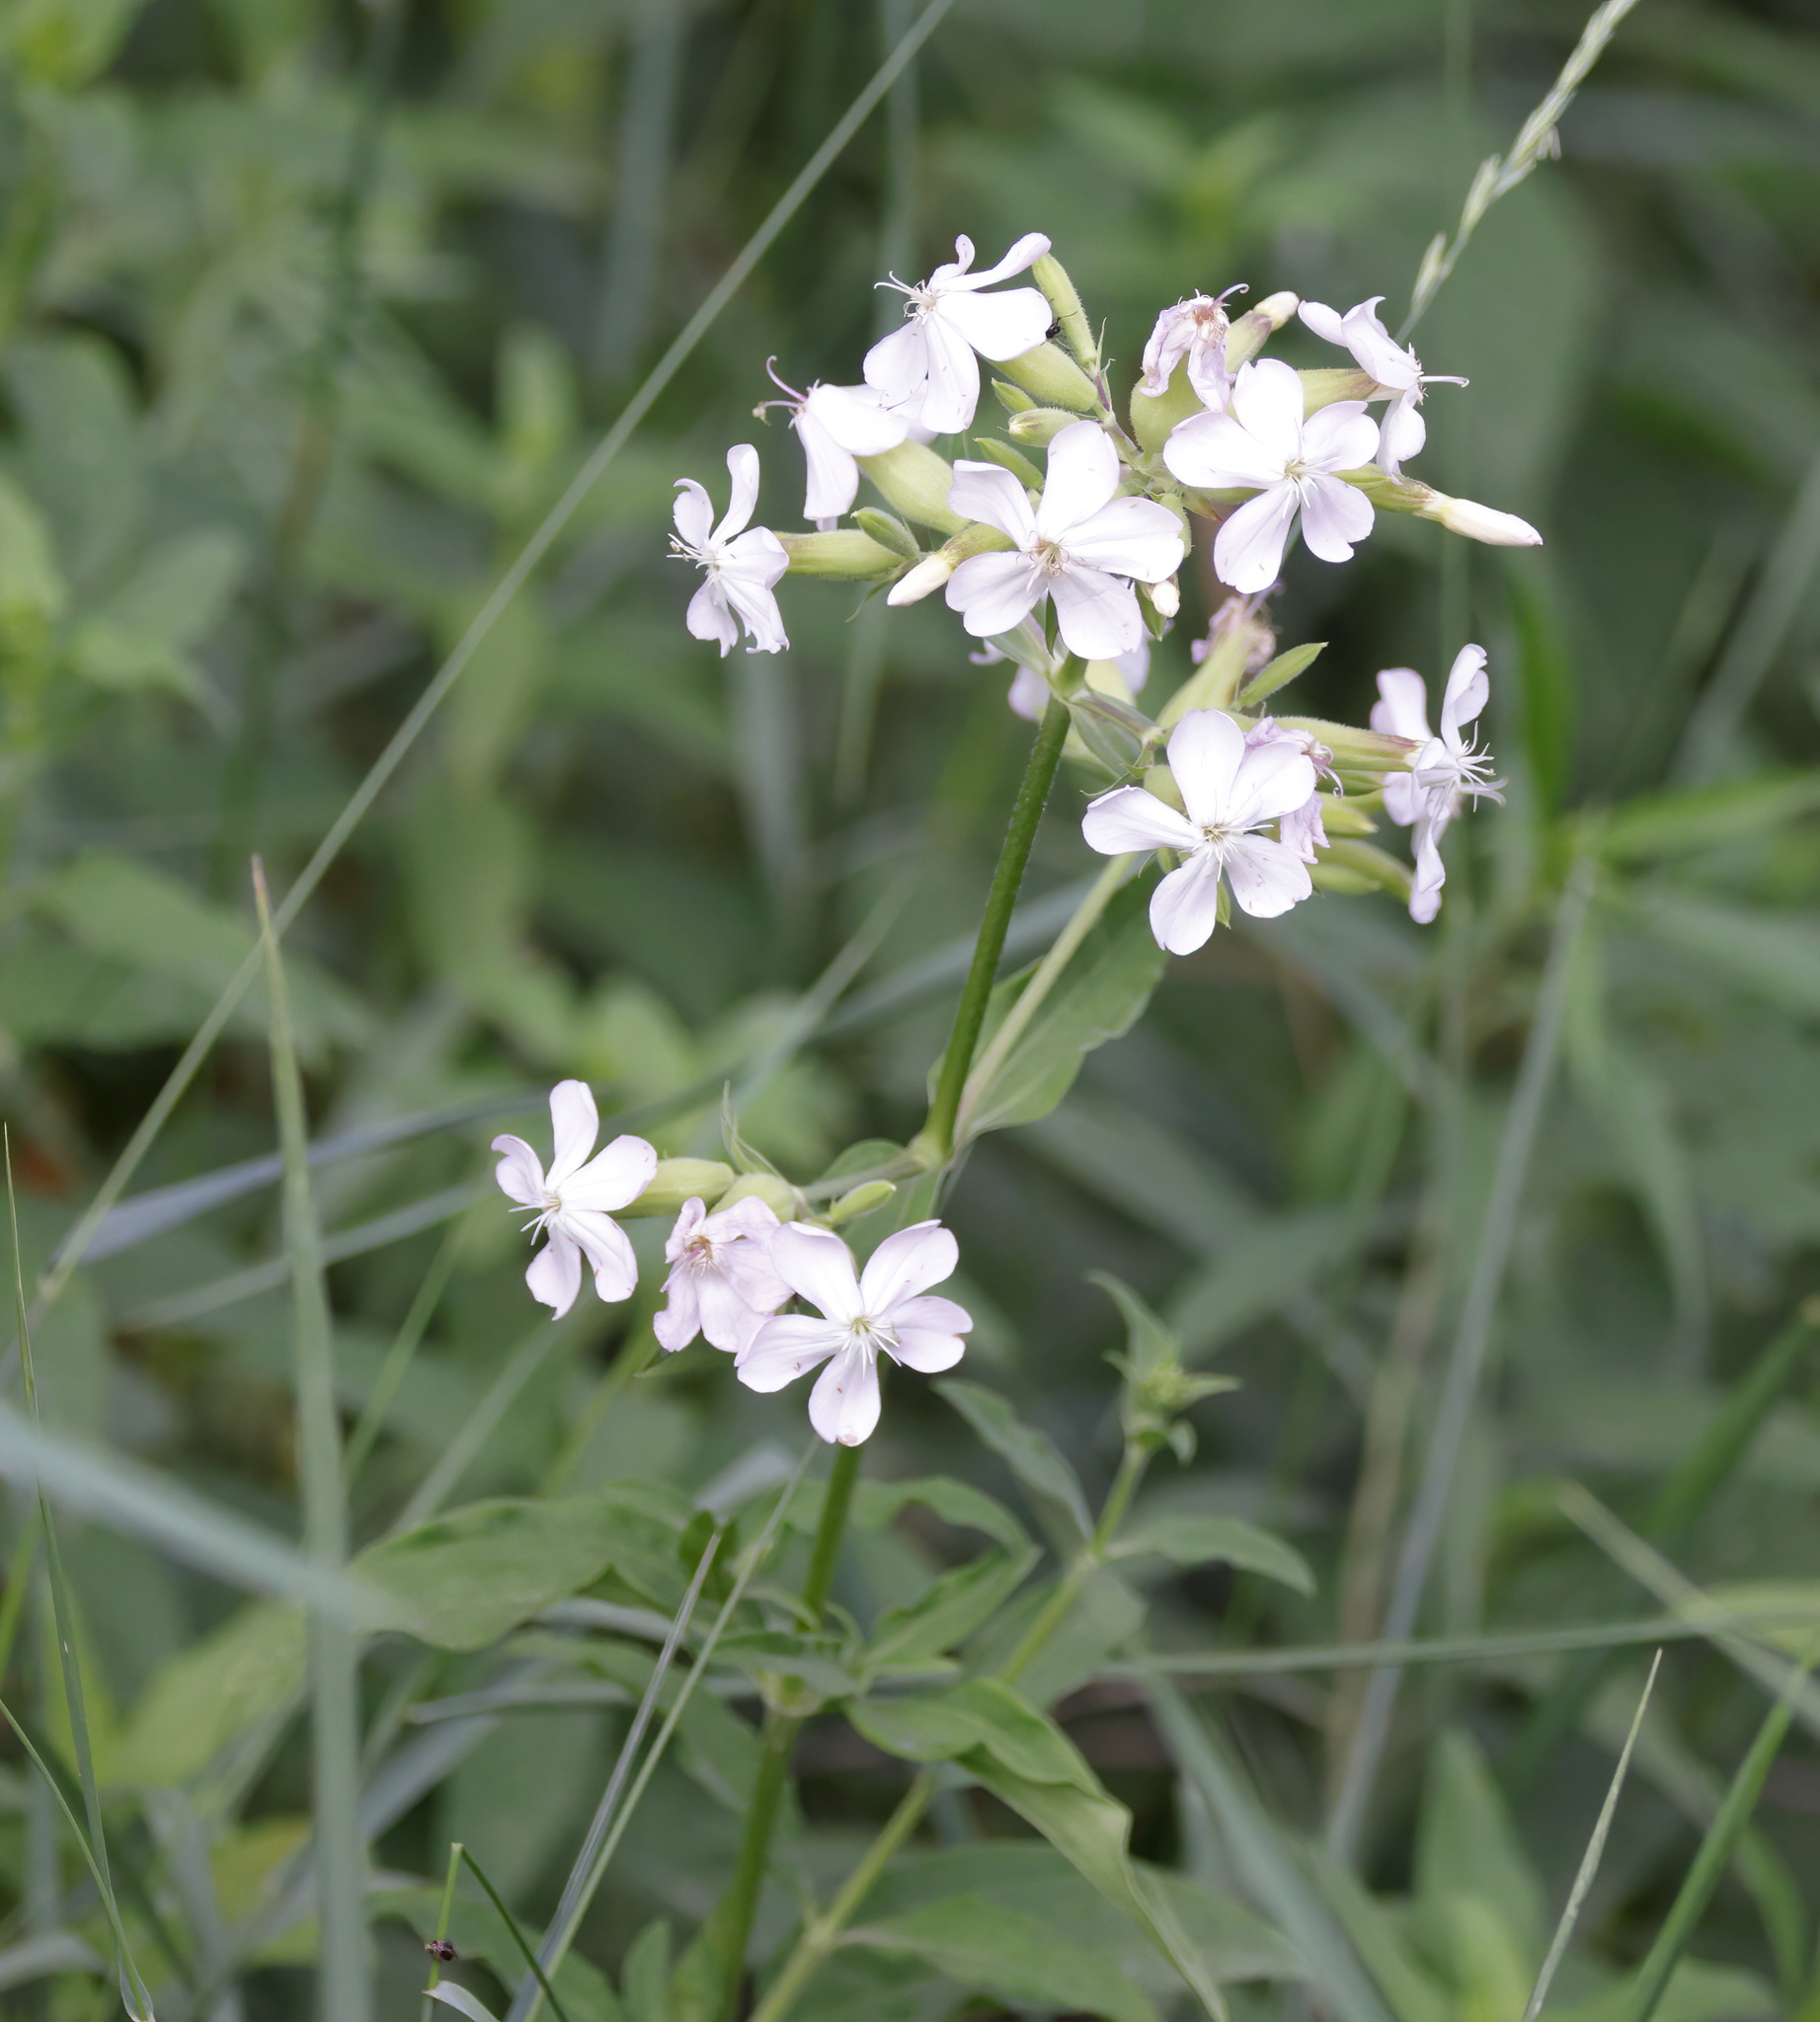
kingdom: Plantae
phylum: Tracheophyta
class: Magnoliopsida
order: Caryophyllales
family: Caryophyllaceae
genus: Saponaria
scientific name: Saponaria officinalis
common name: Soapwort
